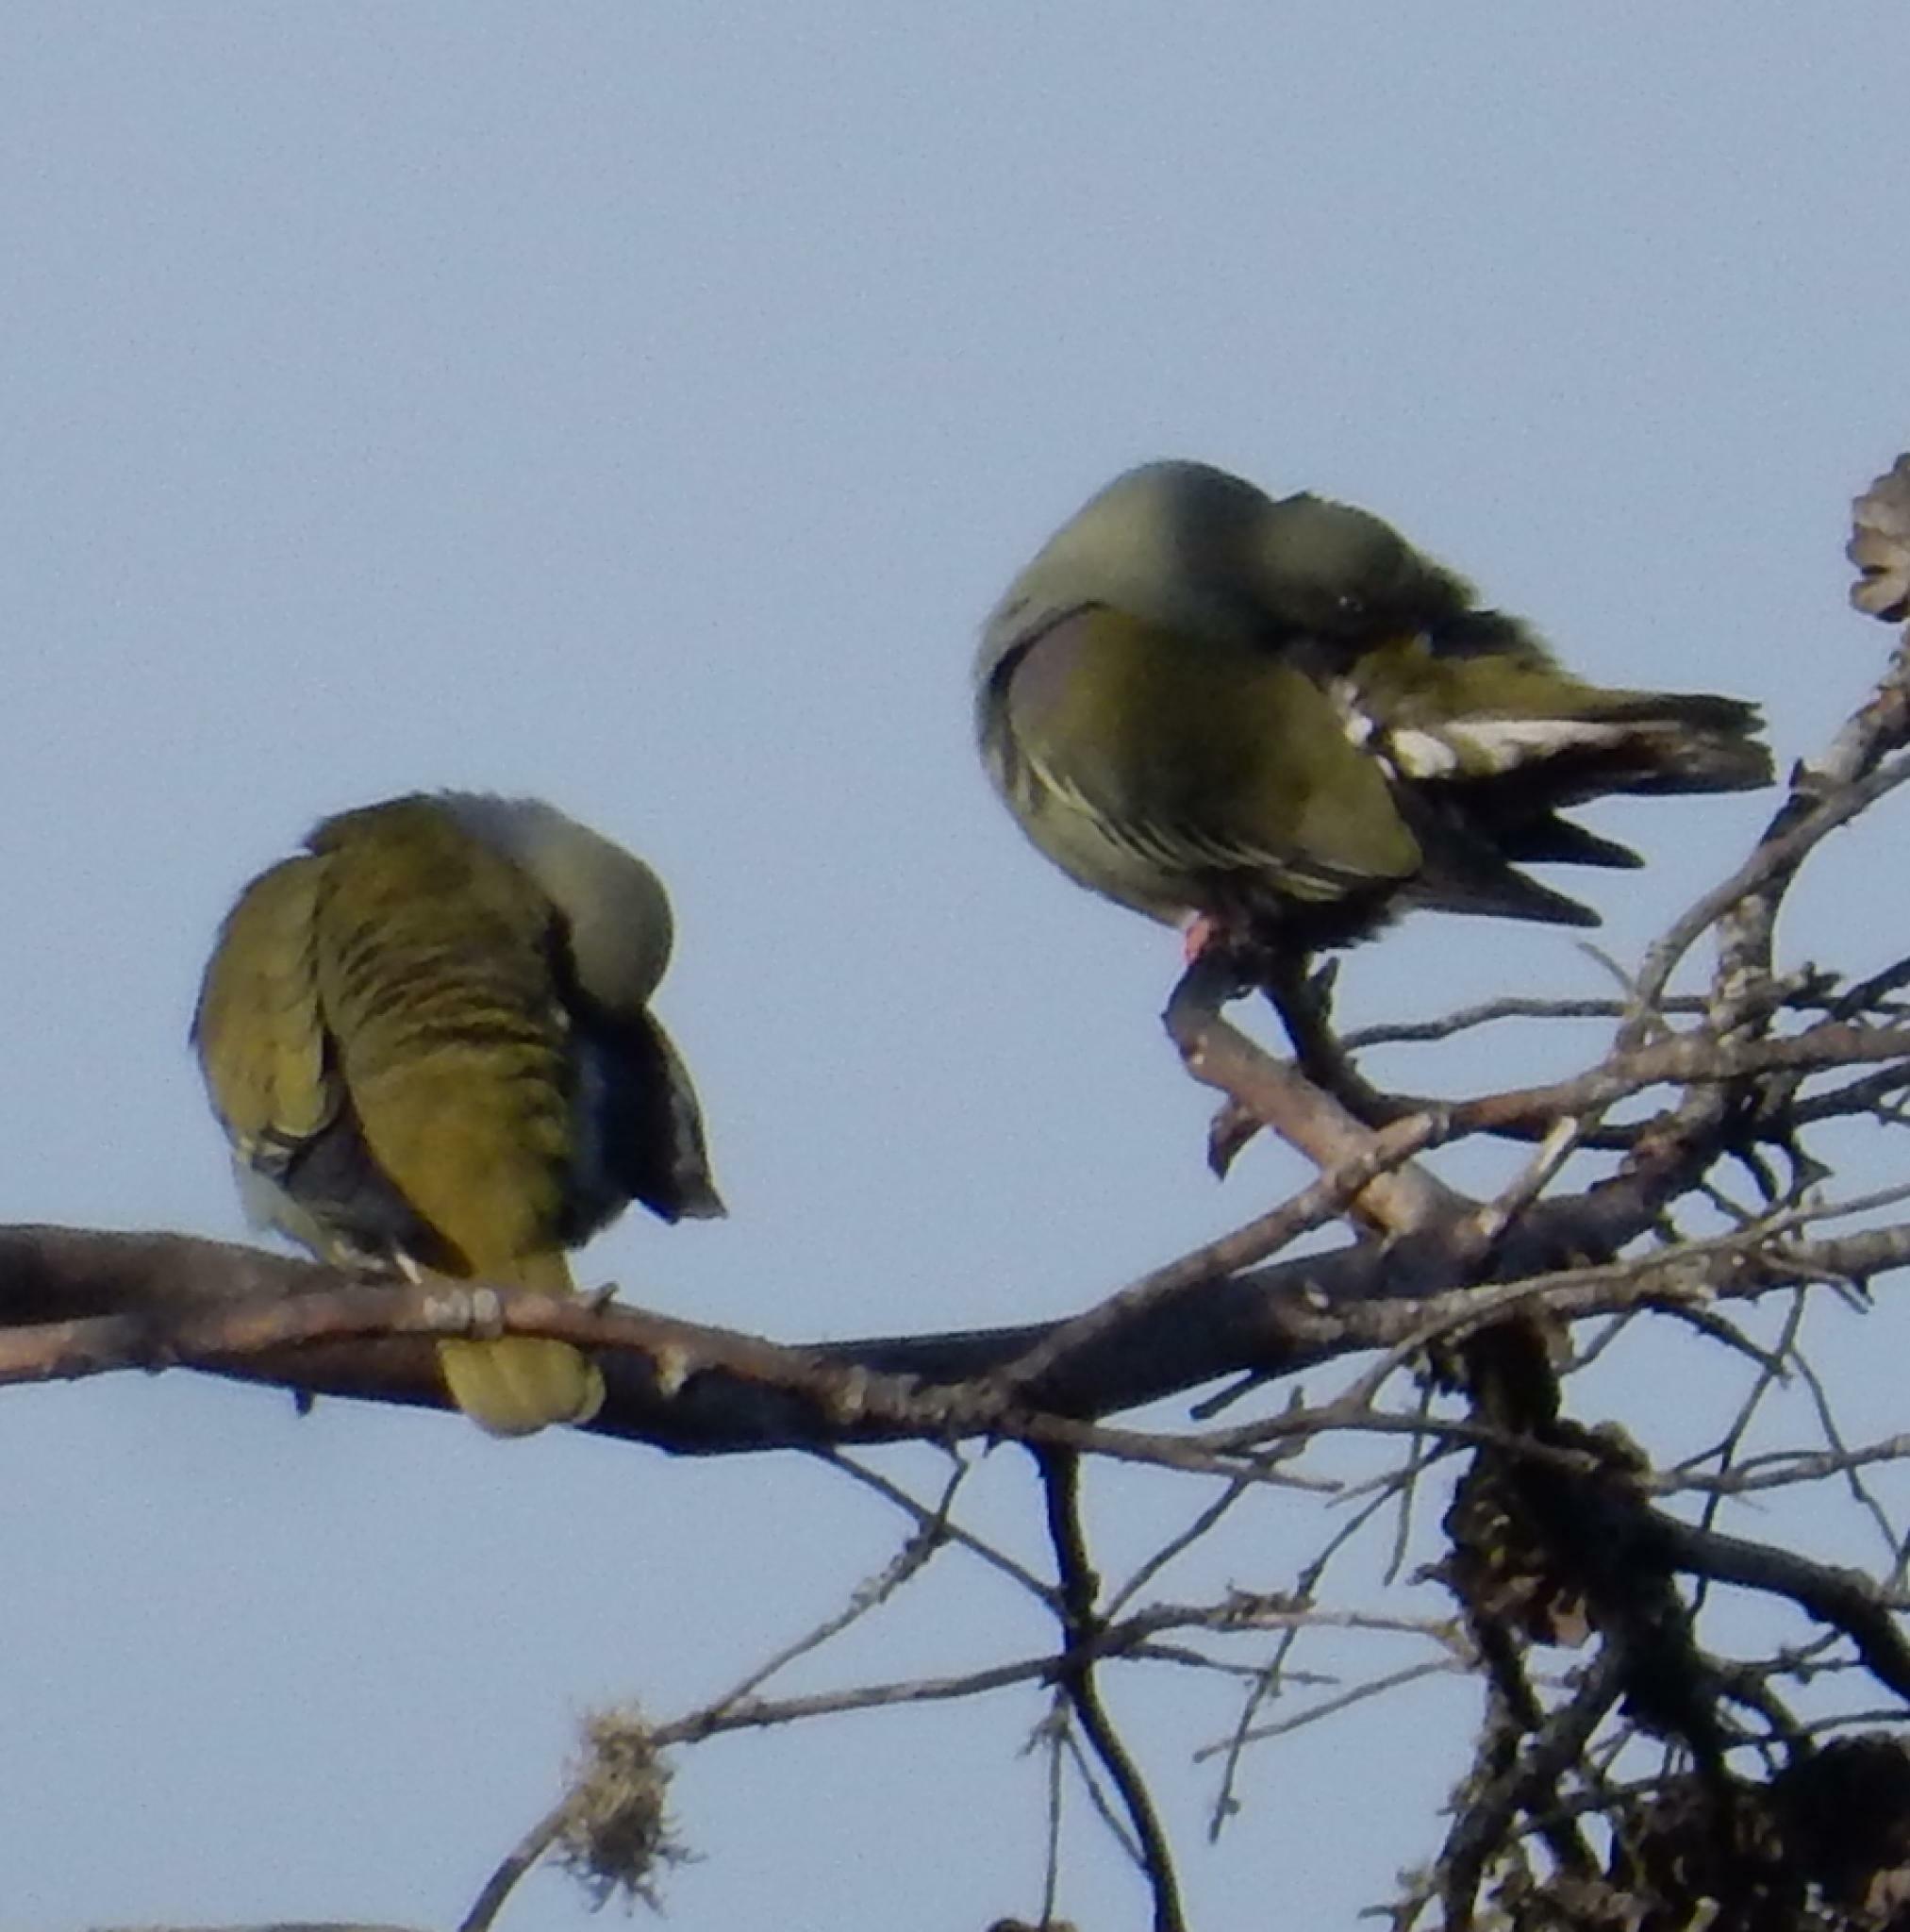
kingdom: Animalia
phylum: Chordata
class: Aves
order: Columbiformes
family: Columbidae
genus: Treron
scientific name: Treron calvus
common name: African green pigeon
